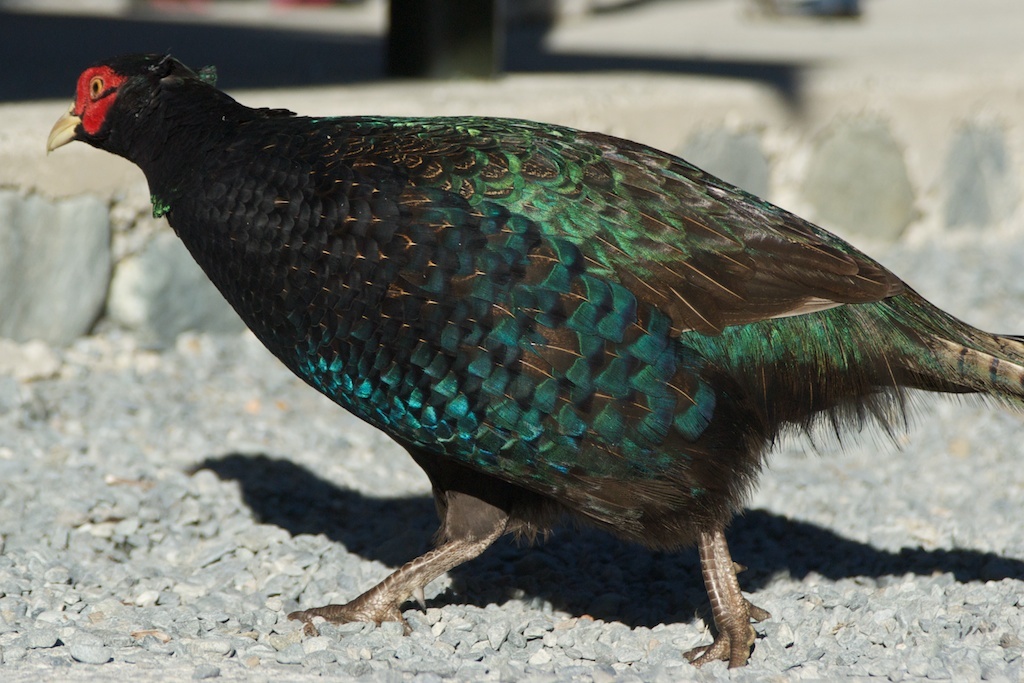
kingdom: Animalia
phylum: Chordata
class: Aves
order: Galliformes
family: Phasianidae
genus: Phasianus
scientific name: Phasianus colchicus
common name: Common pheasant
